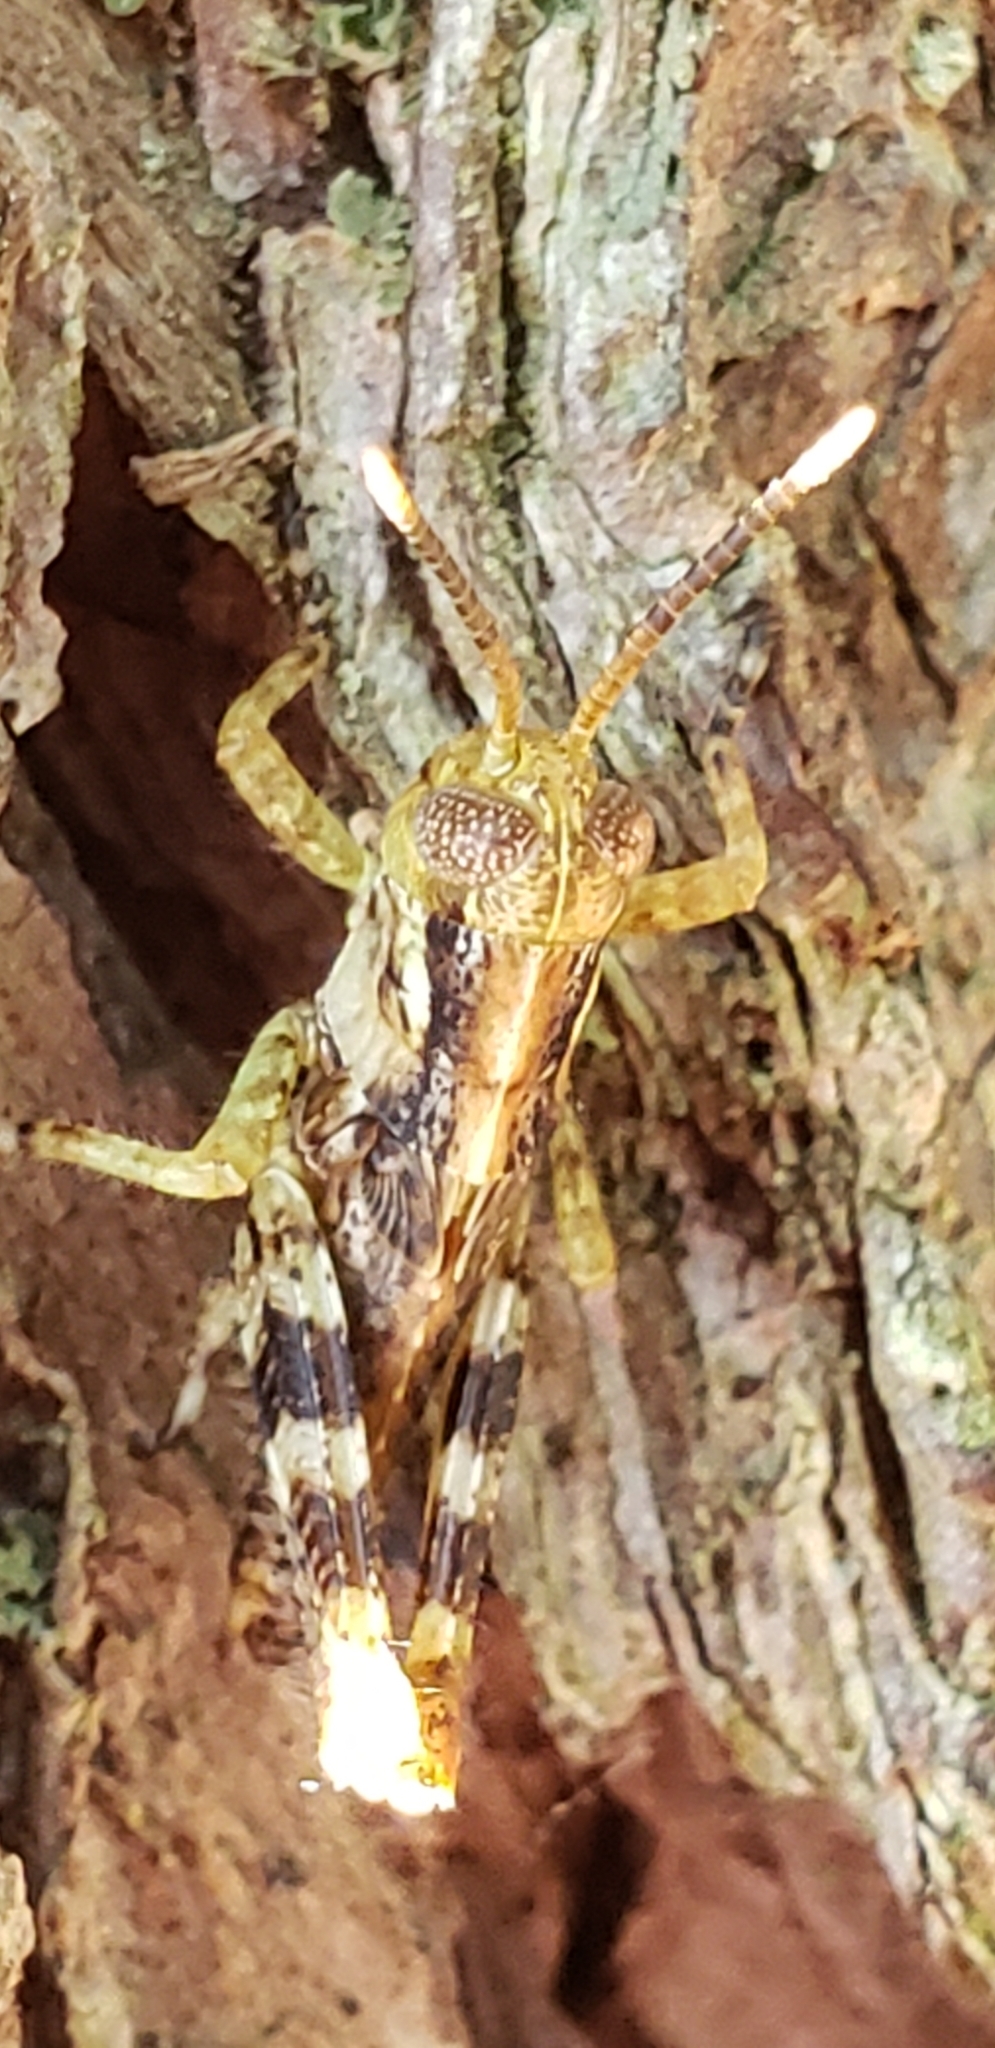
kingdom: Animalia
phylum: Arthropoda
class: Insecta
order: Orthoptera
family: Acrididae
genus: Melanoplus
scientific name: Melanoplus punctulatus
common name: Pine-tree spur-throat grasshopper
